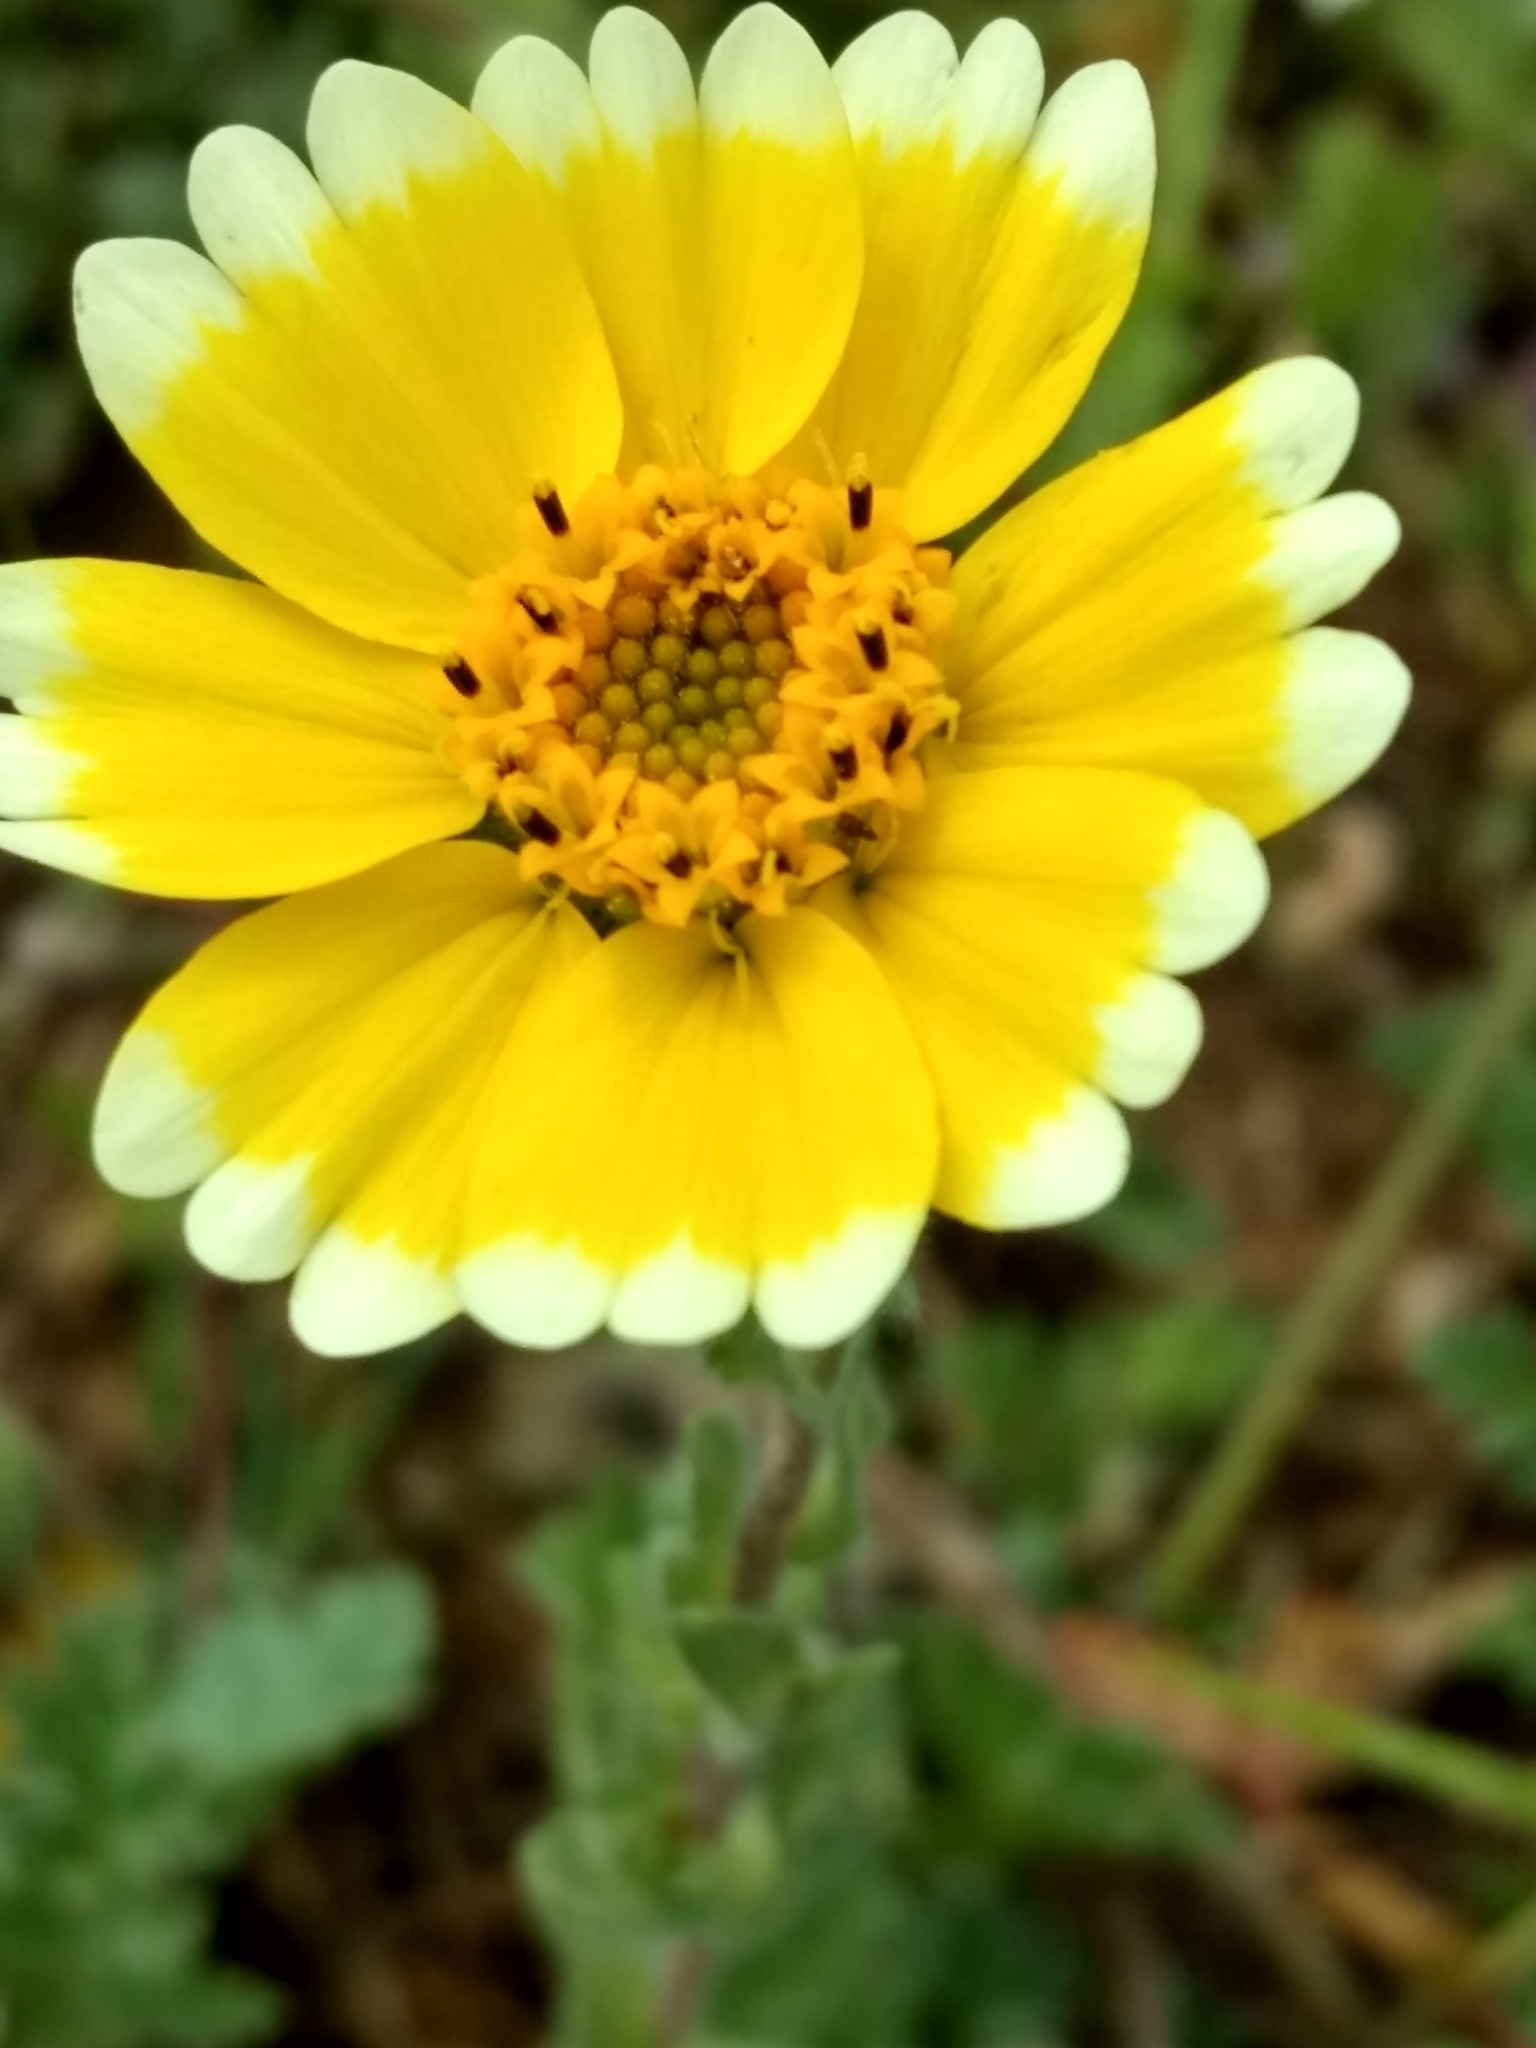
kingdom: Plantae
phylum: Tracheophyta
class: Magnoliopsida
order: Asterales
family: Asteraceae
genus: Layia
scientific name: Layia platyglossa
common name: Tidy-tips
